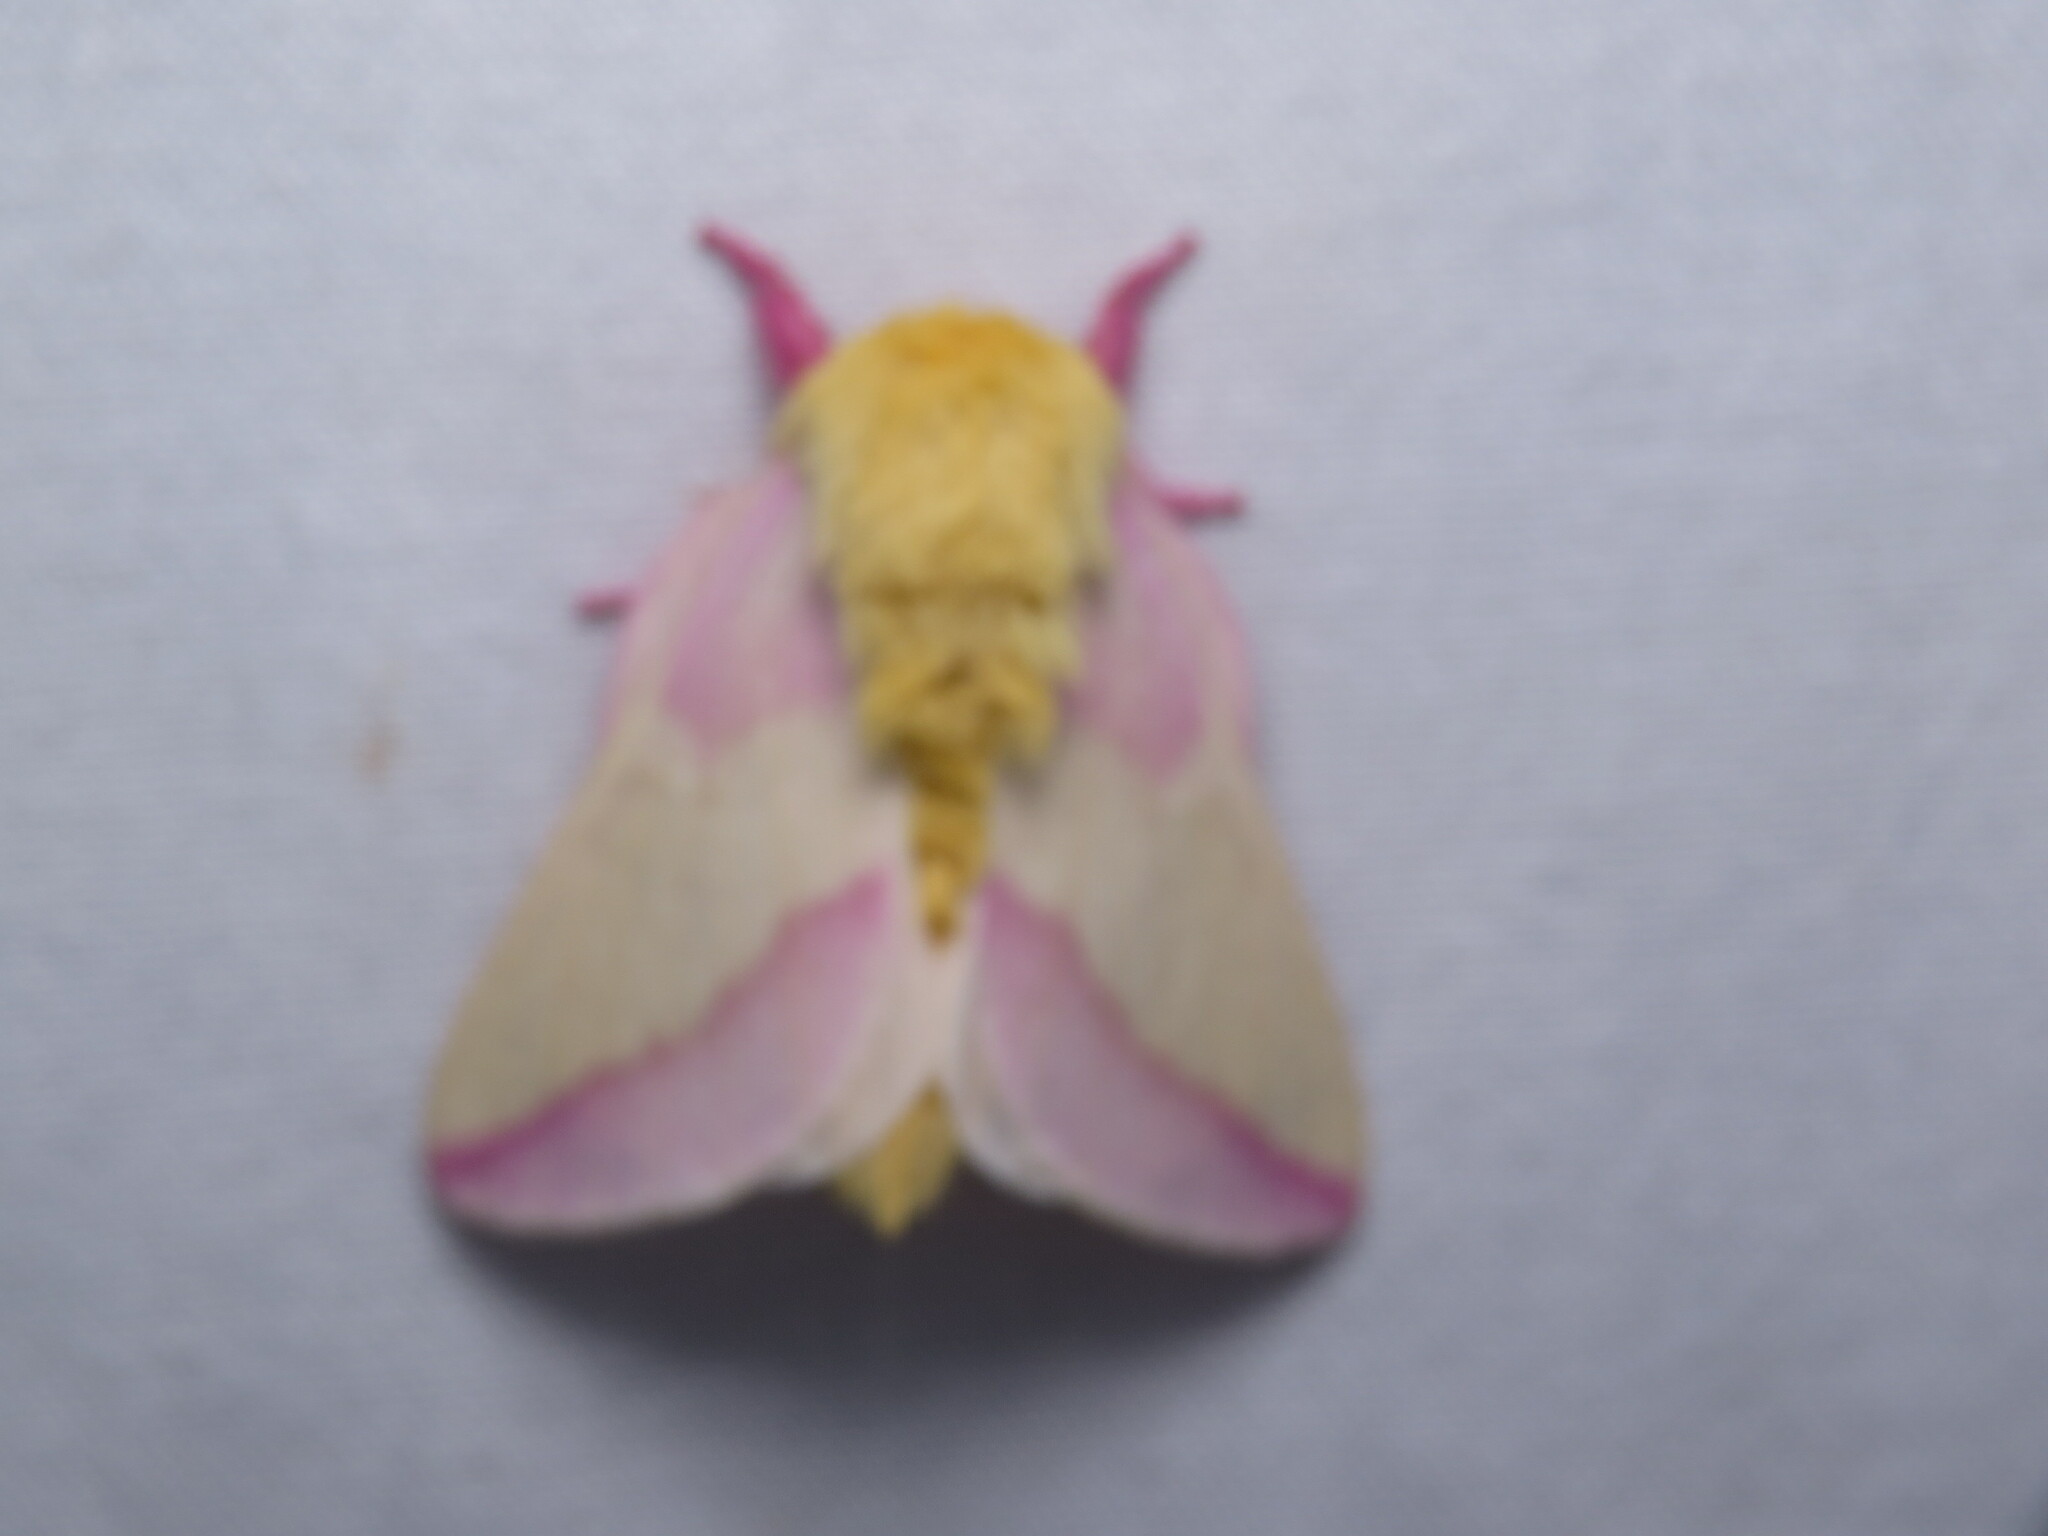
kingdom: Animalia
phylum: Arthropoda
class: Insecta
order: Lepidoptera
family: Saturniidae
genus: Dryocampa
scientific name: Dryocampa rubicunda
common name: Rosy maple moth
